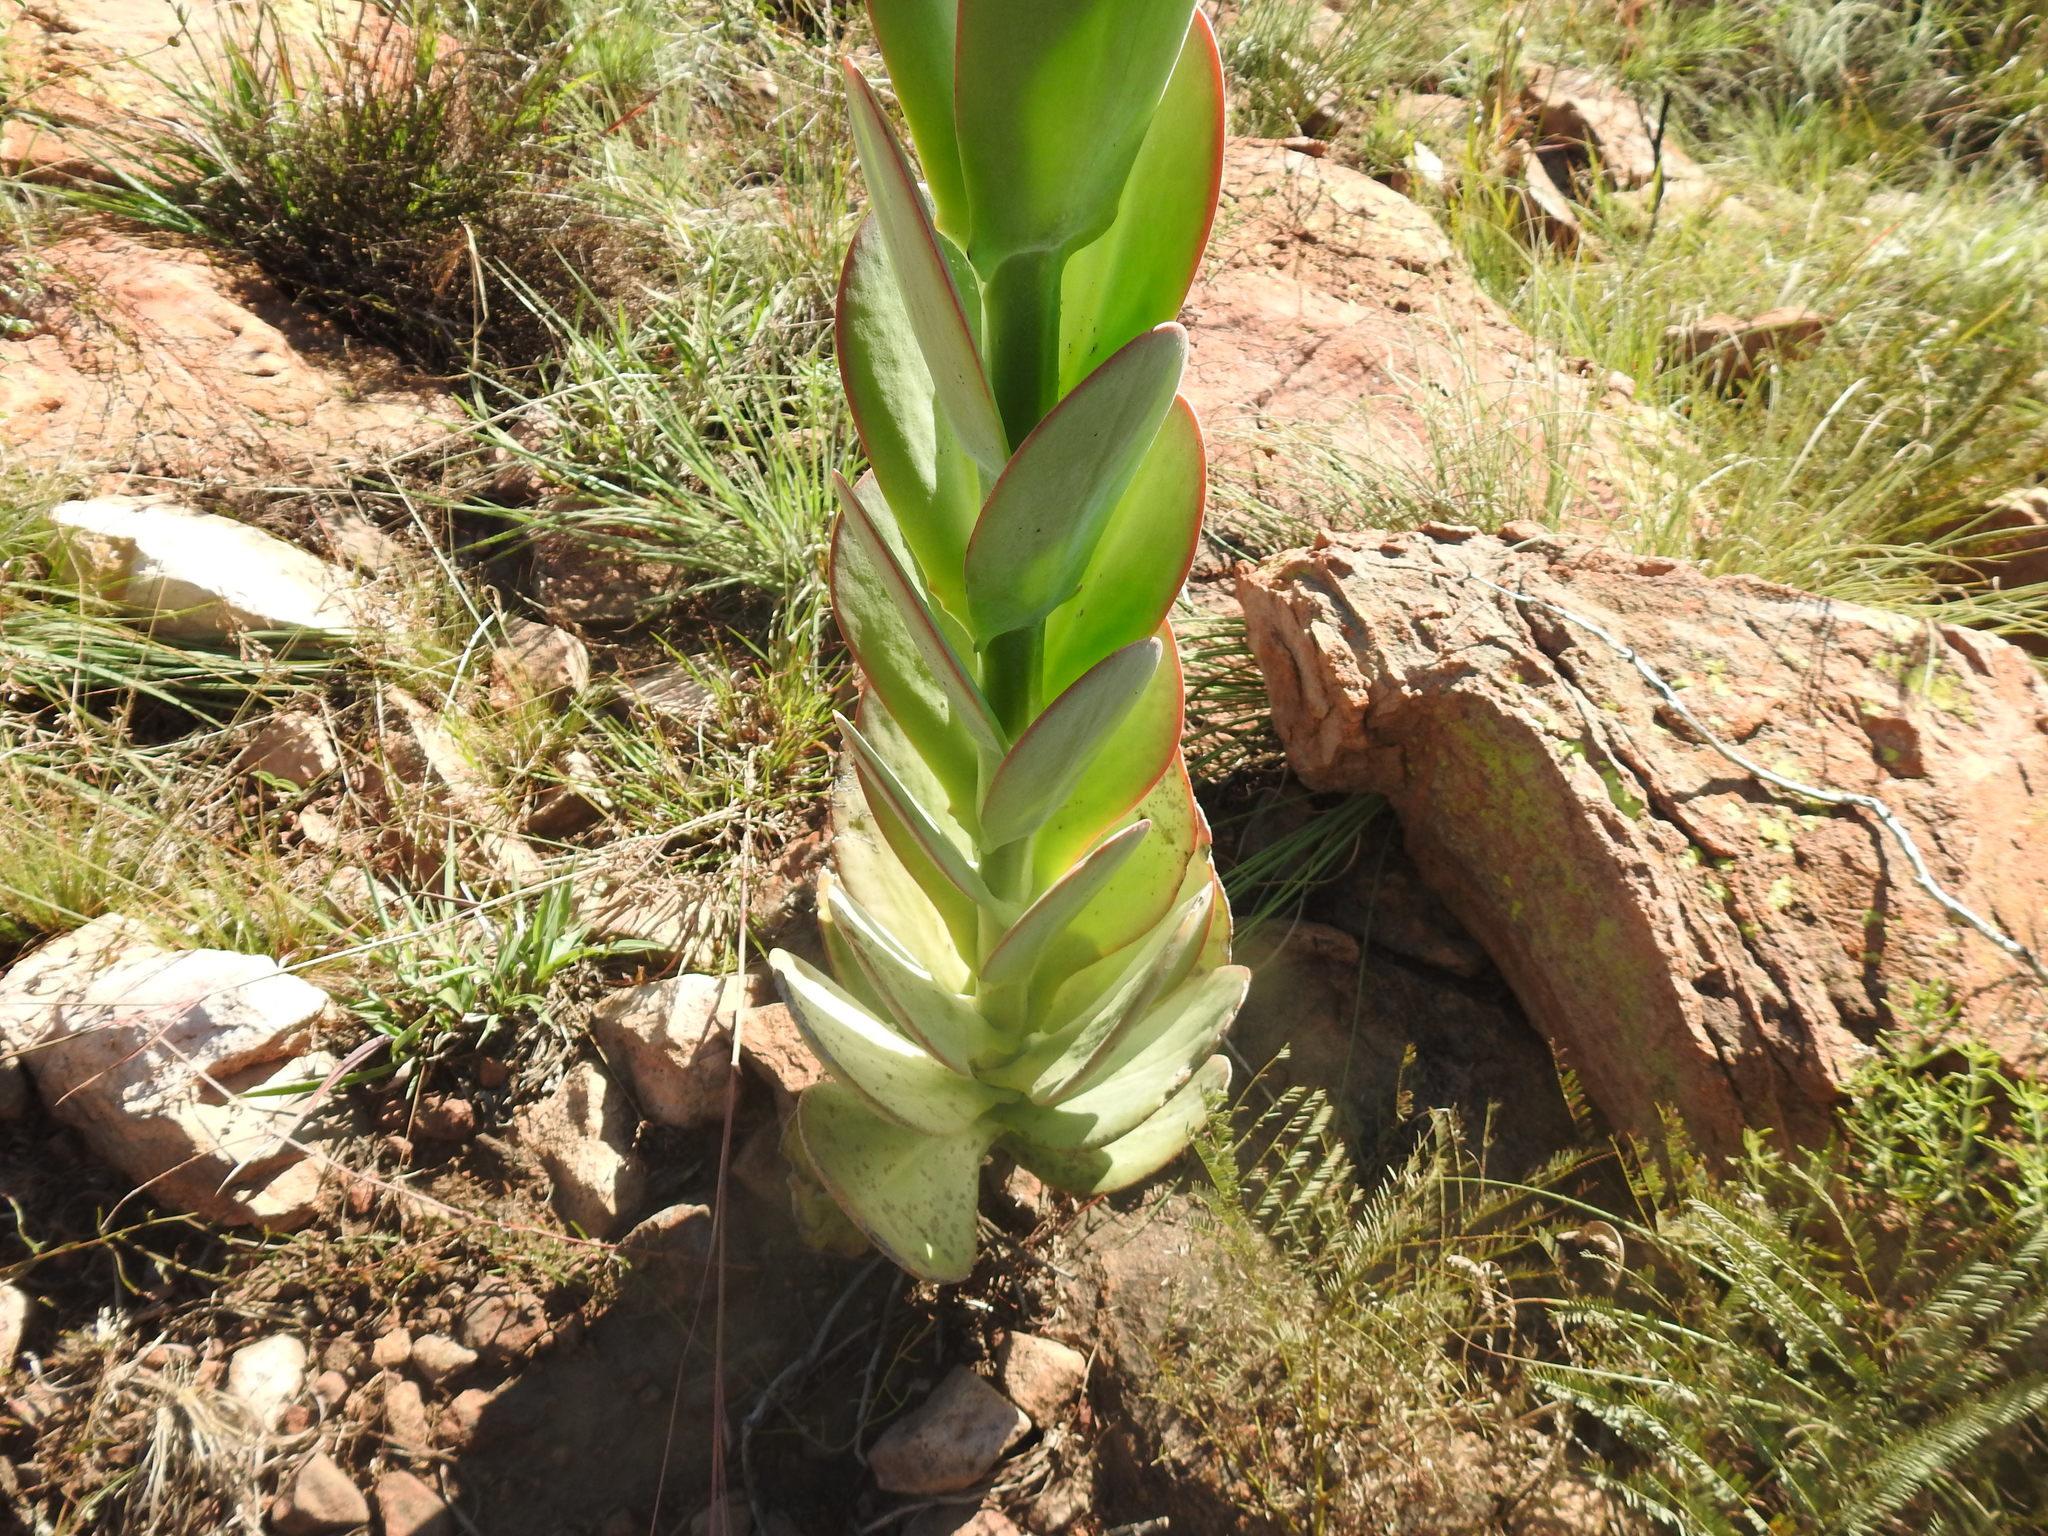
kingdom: Plantae
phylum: Tracheophyta
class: Magnoliopsida
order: Saxifragales
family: Crassulaceae
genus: Kalanchoe
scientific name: Kalanchoe thyrsiflora
